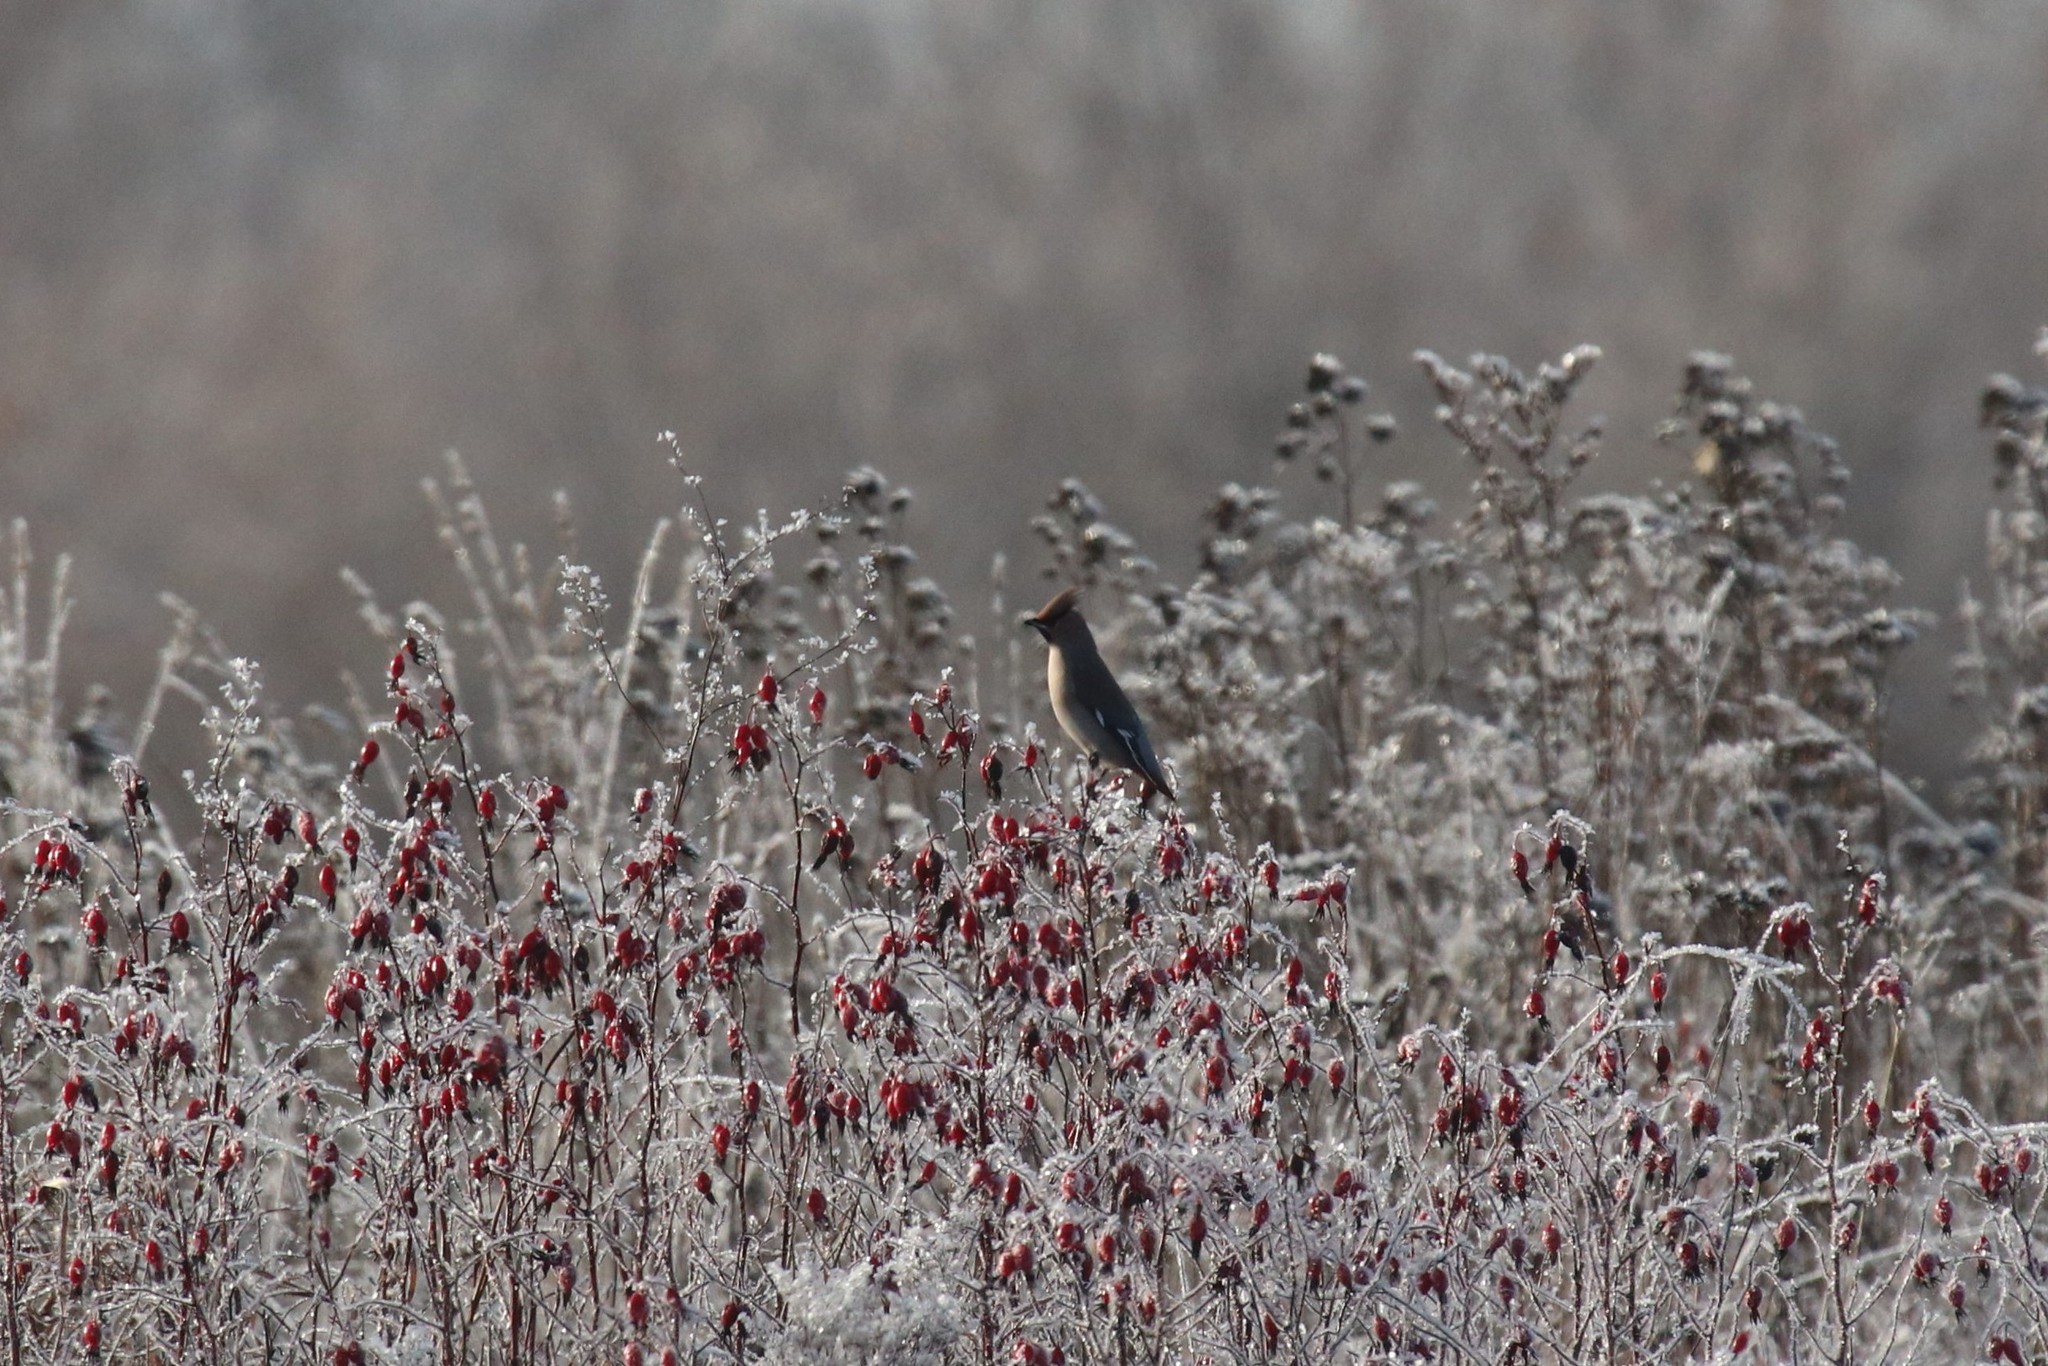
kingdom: Animalia
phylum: Chordata
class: Aves
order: Passeriformes
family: Bombycillidae
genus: Bombycilla
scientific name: Bombycilla garrulus
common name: Bohemian waxwing
